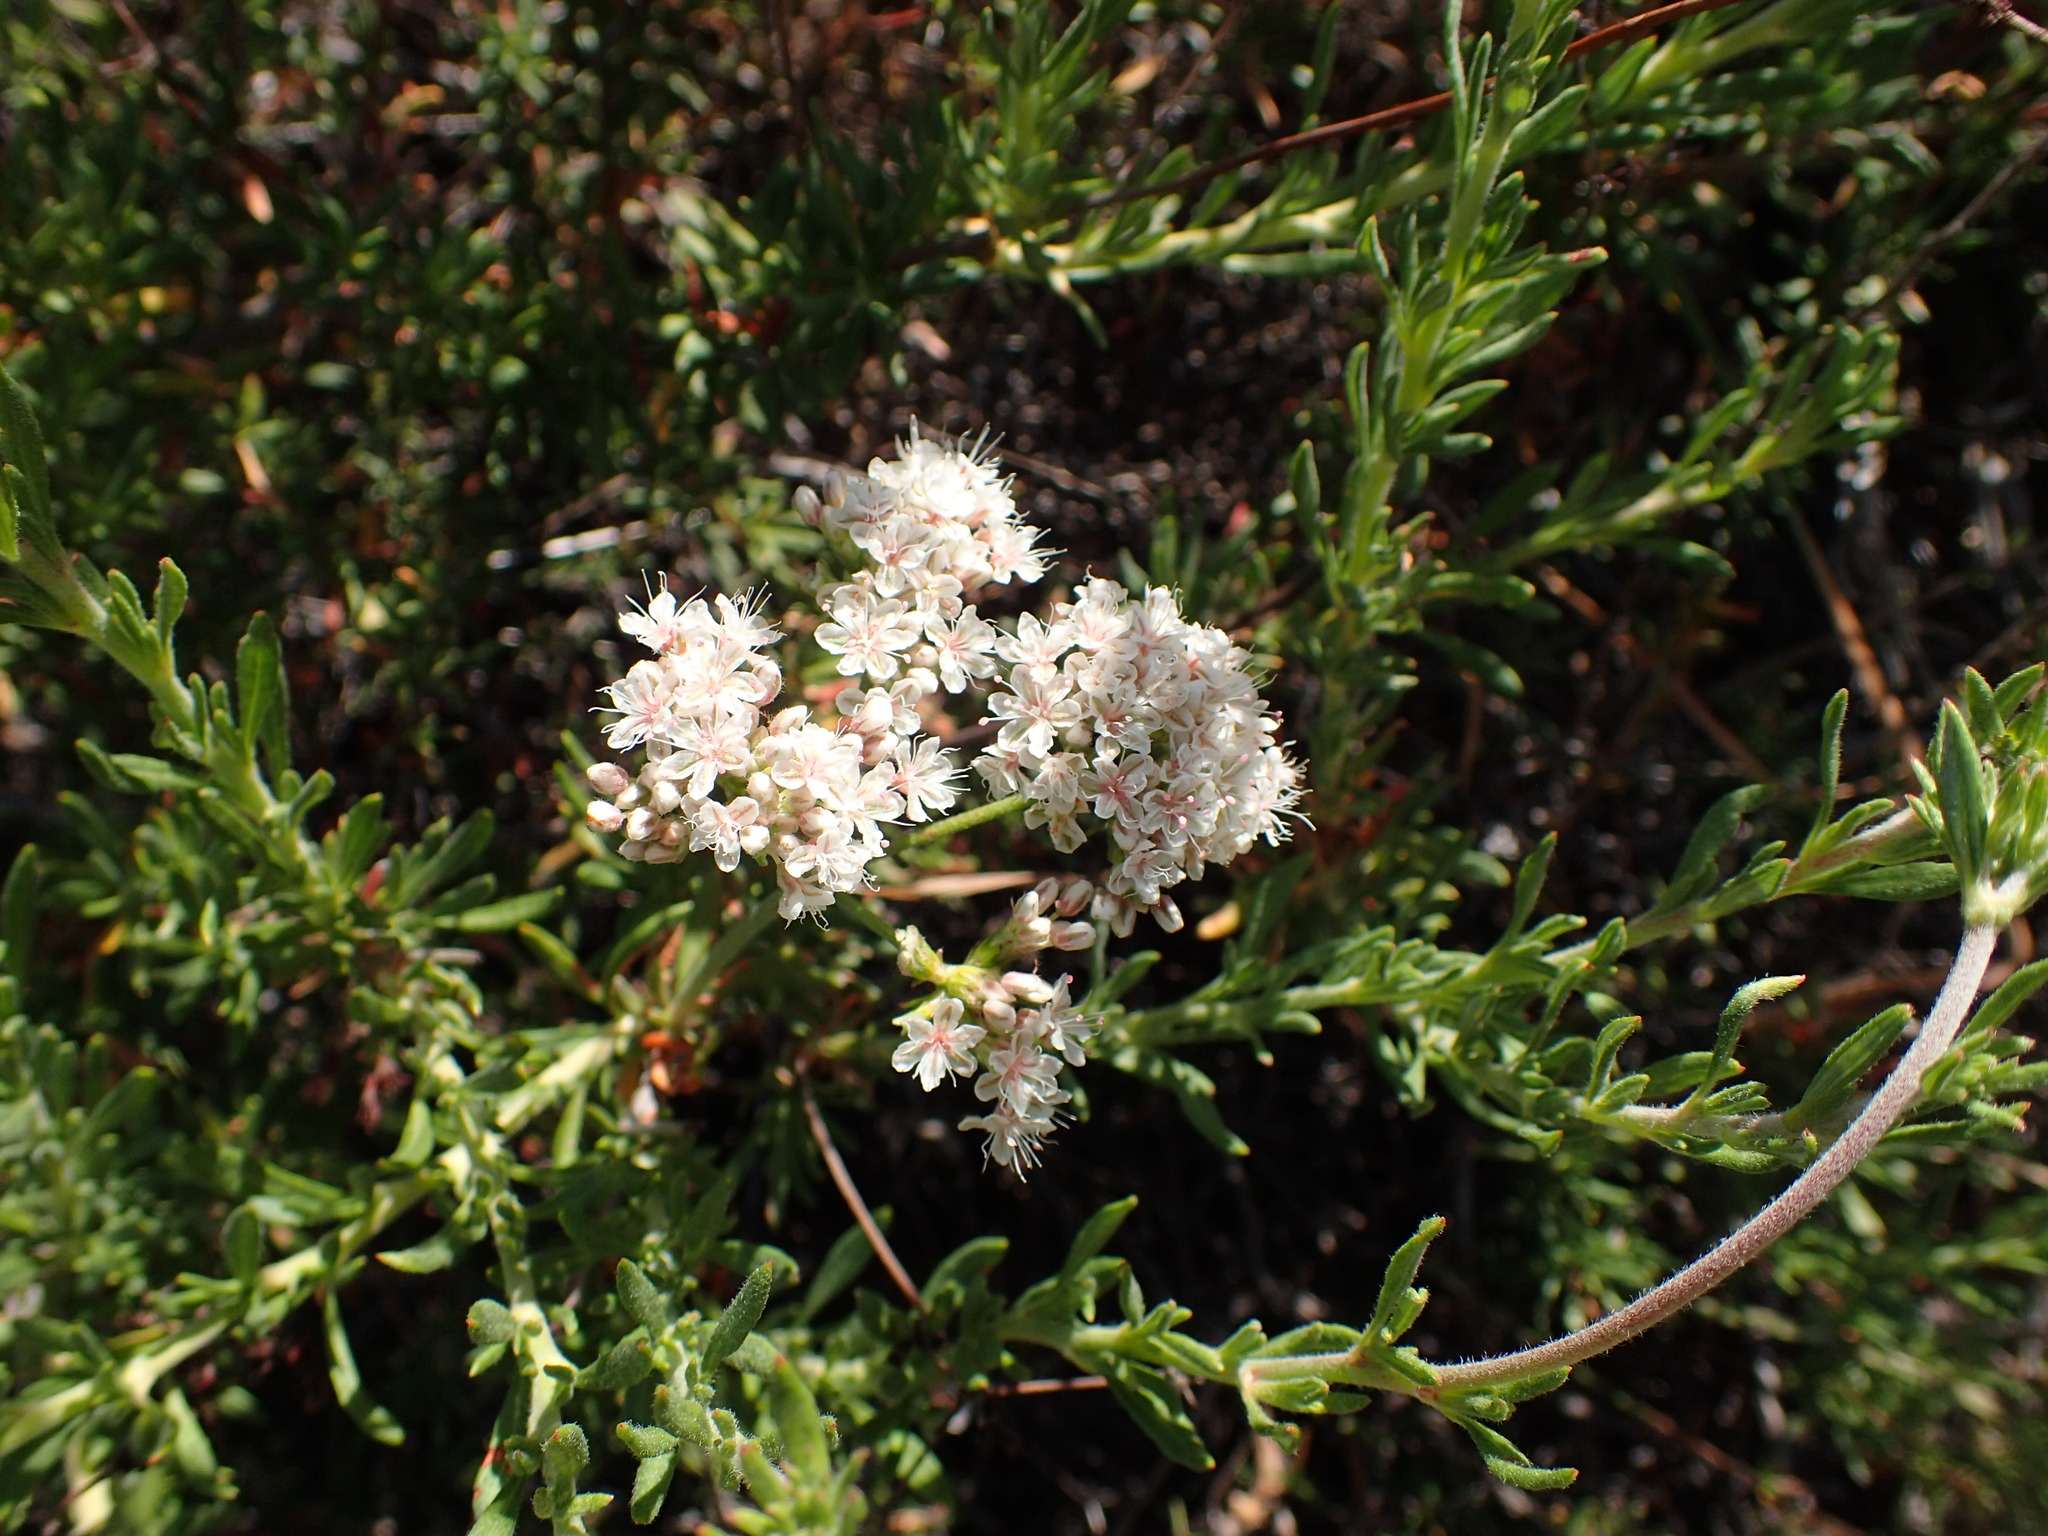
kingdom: Plantae
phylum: Tracheophyta
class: Magnoliopsida
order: Caryophyllales
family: Polygonaceae
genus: Eriogonum
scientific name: Eriogonum fasciculatum
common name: California wild buckwheat
